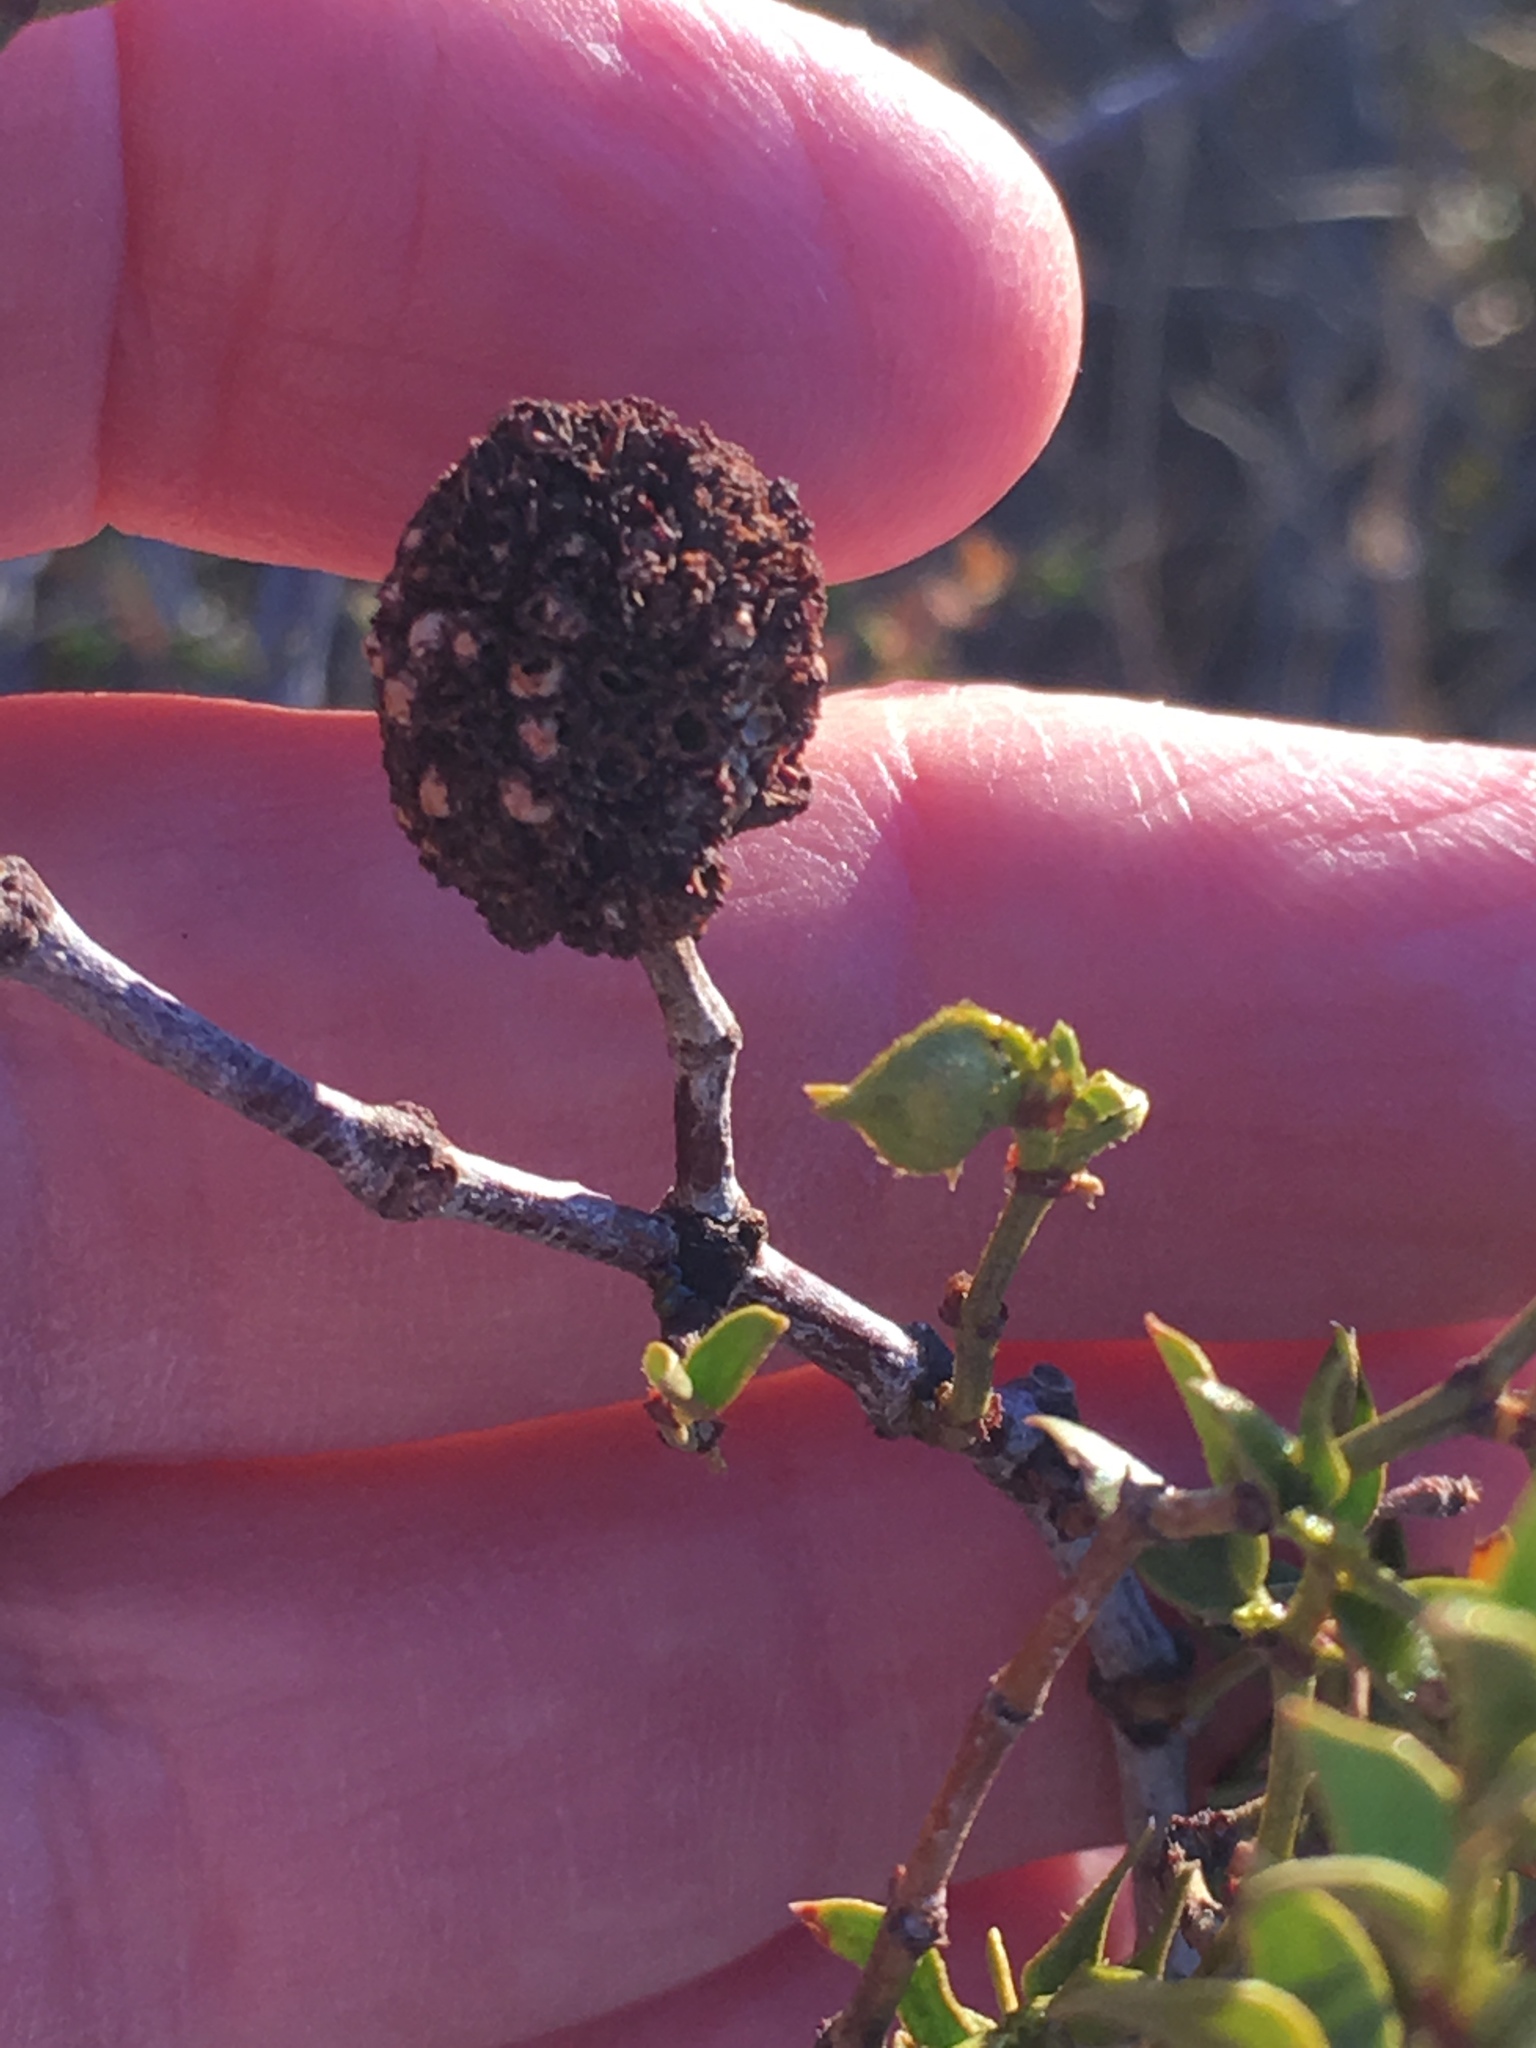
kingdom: Animalia
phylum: Arthropoda
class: Insecta
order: Diptera
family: Cecidomyiidae
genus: Asphondylia
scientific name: Asphondylia auripila
